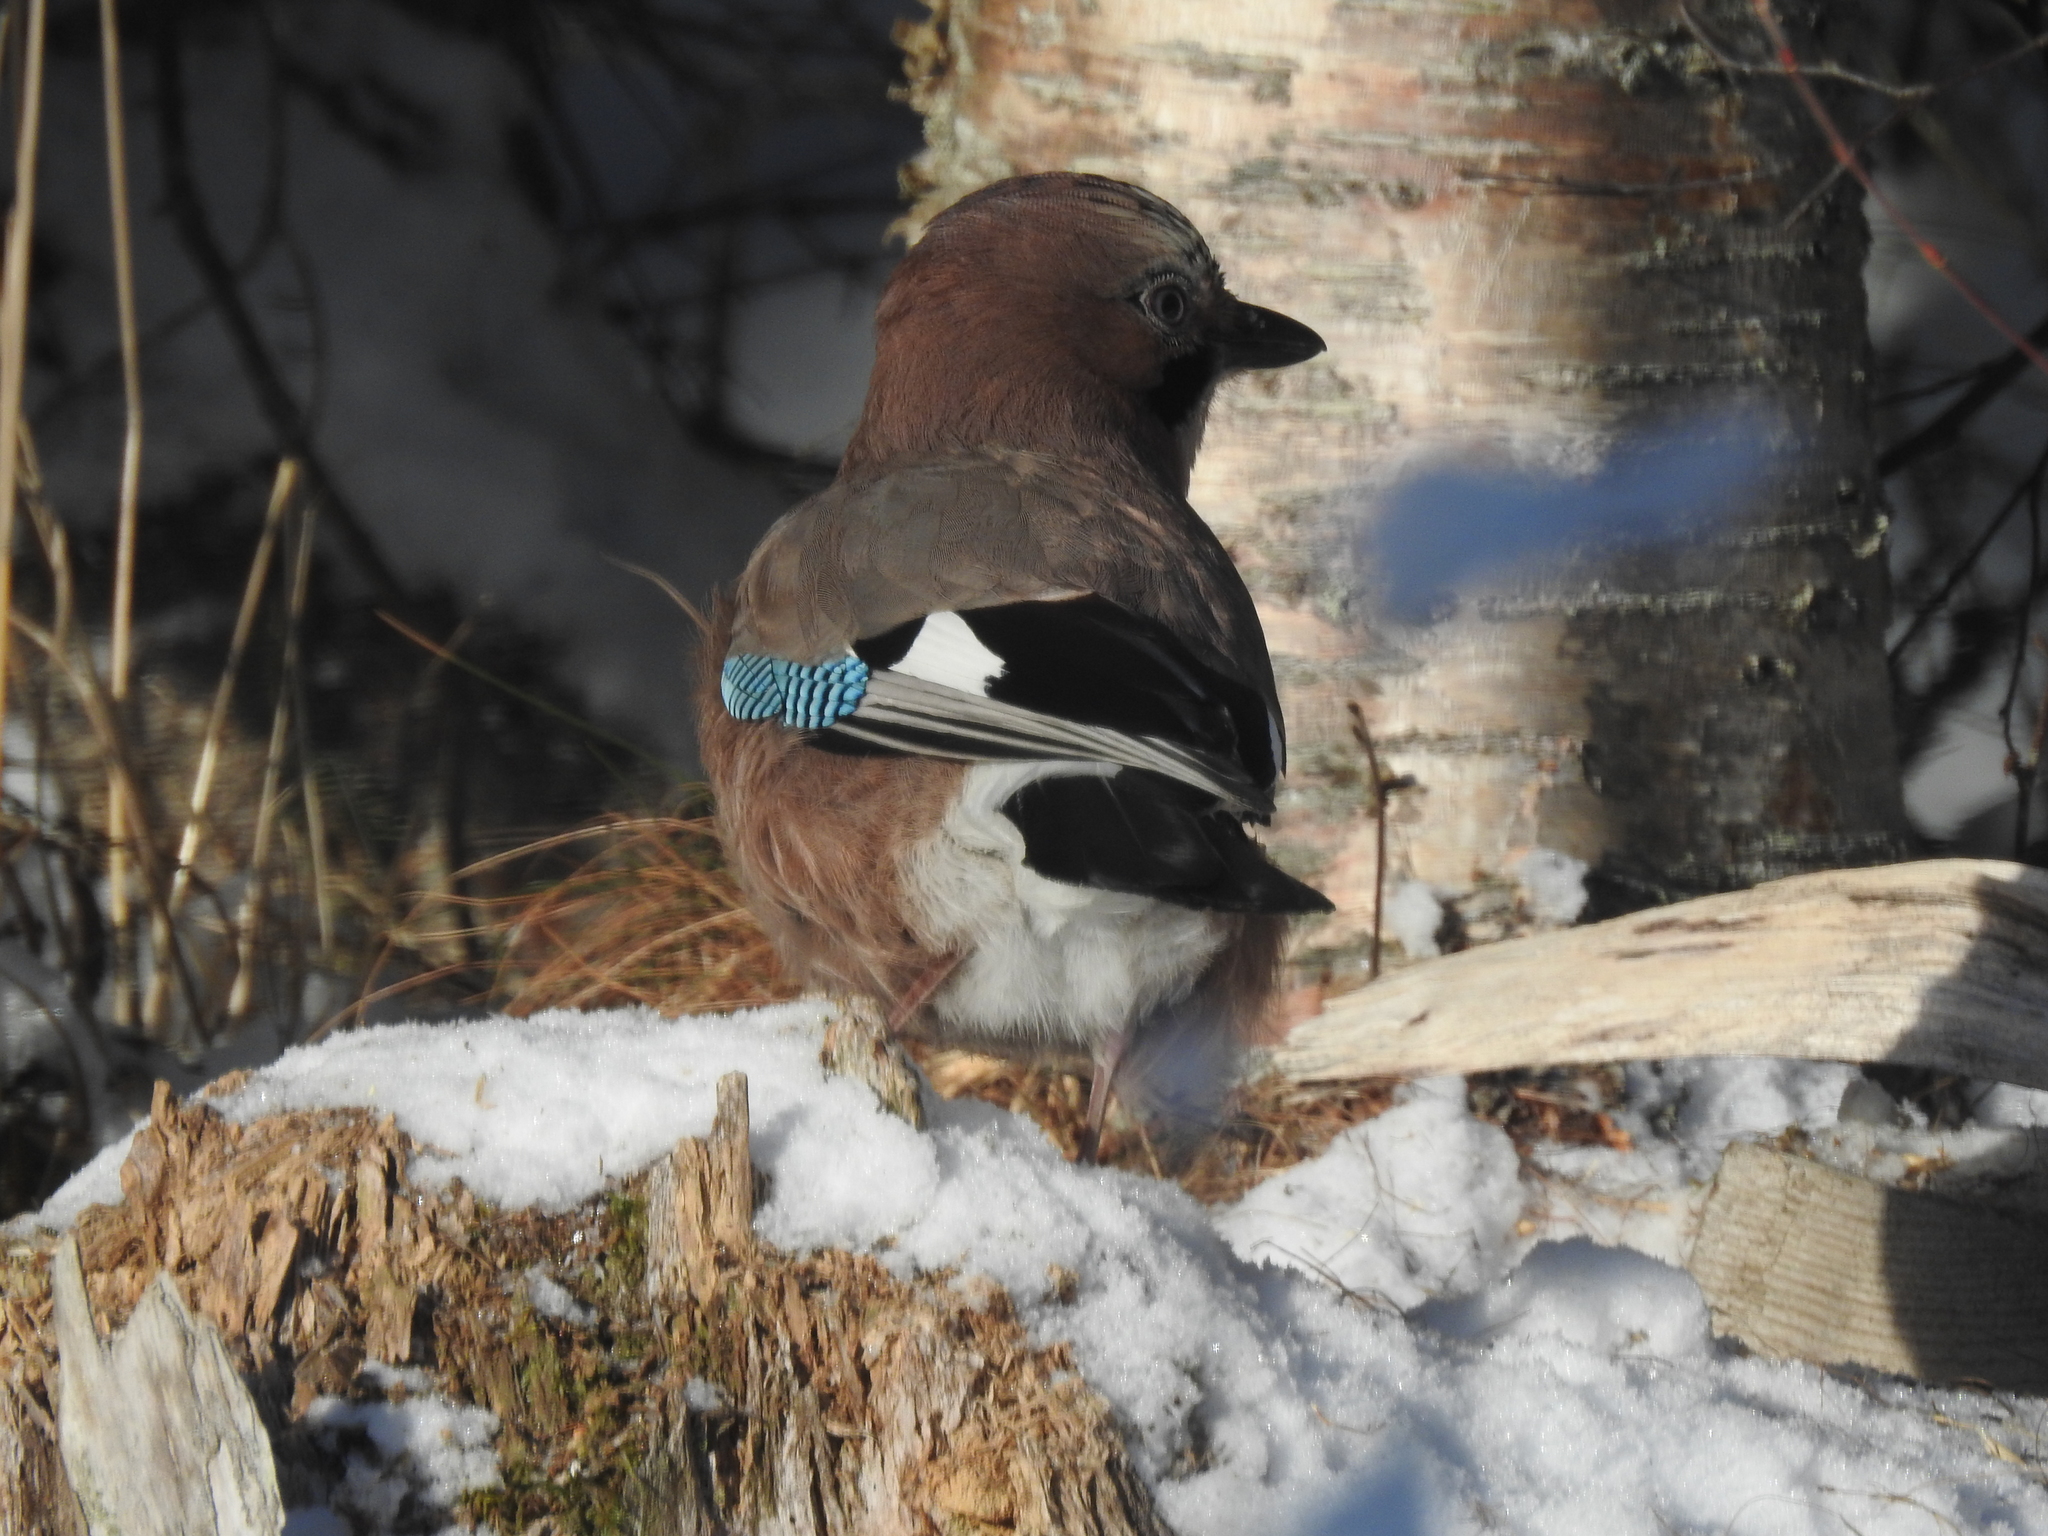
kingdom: Animalia
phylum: Chordata
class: Aves
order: Passeriformes
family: Corvidae
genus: Garrulus
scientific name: Garrulus glandarius
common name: Eurasian jay
